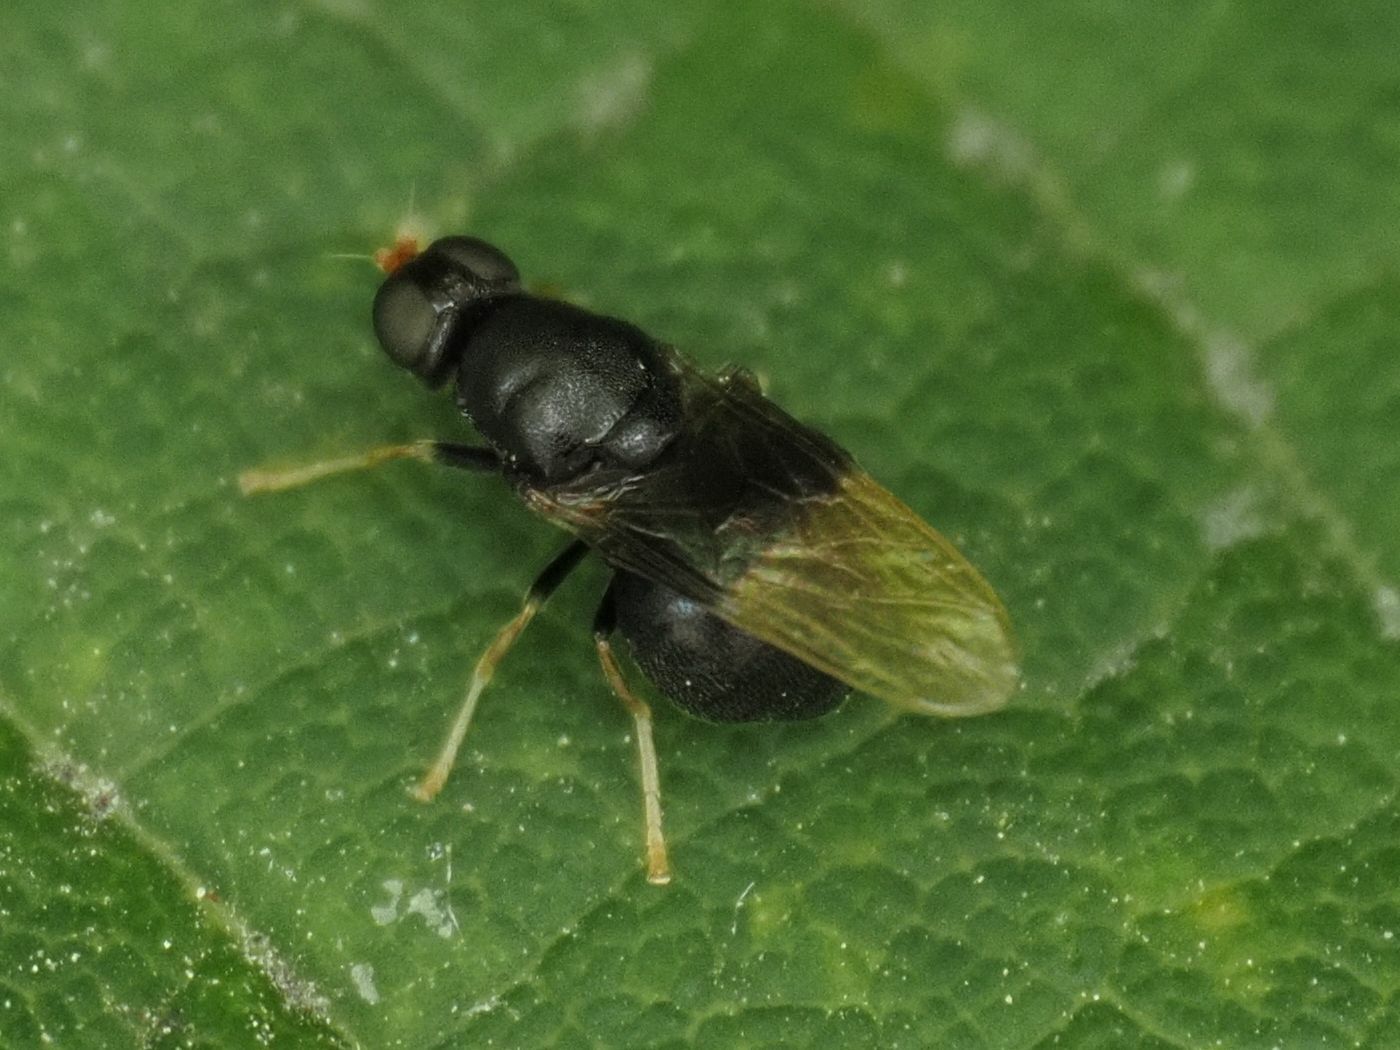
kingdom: Animalia
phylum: Arthropoda
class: Insecta
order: Diptera
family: Stratiomyidae
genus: Pachygaster
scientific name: Pachygaster atra
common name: Dark-winged black
